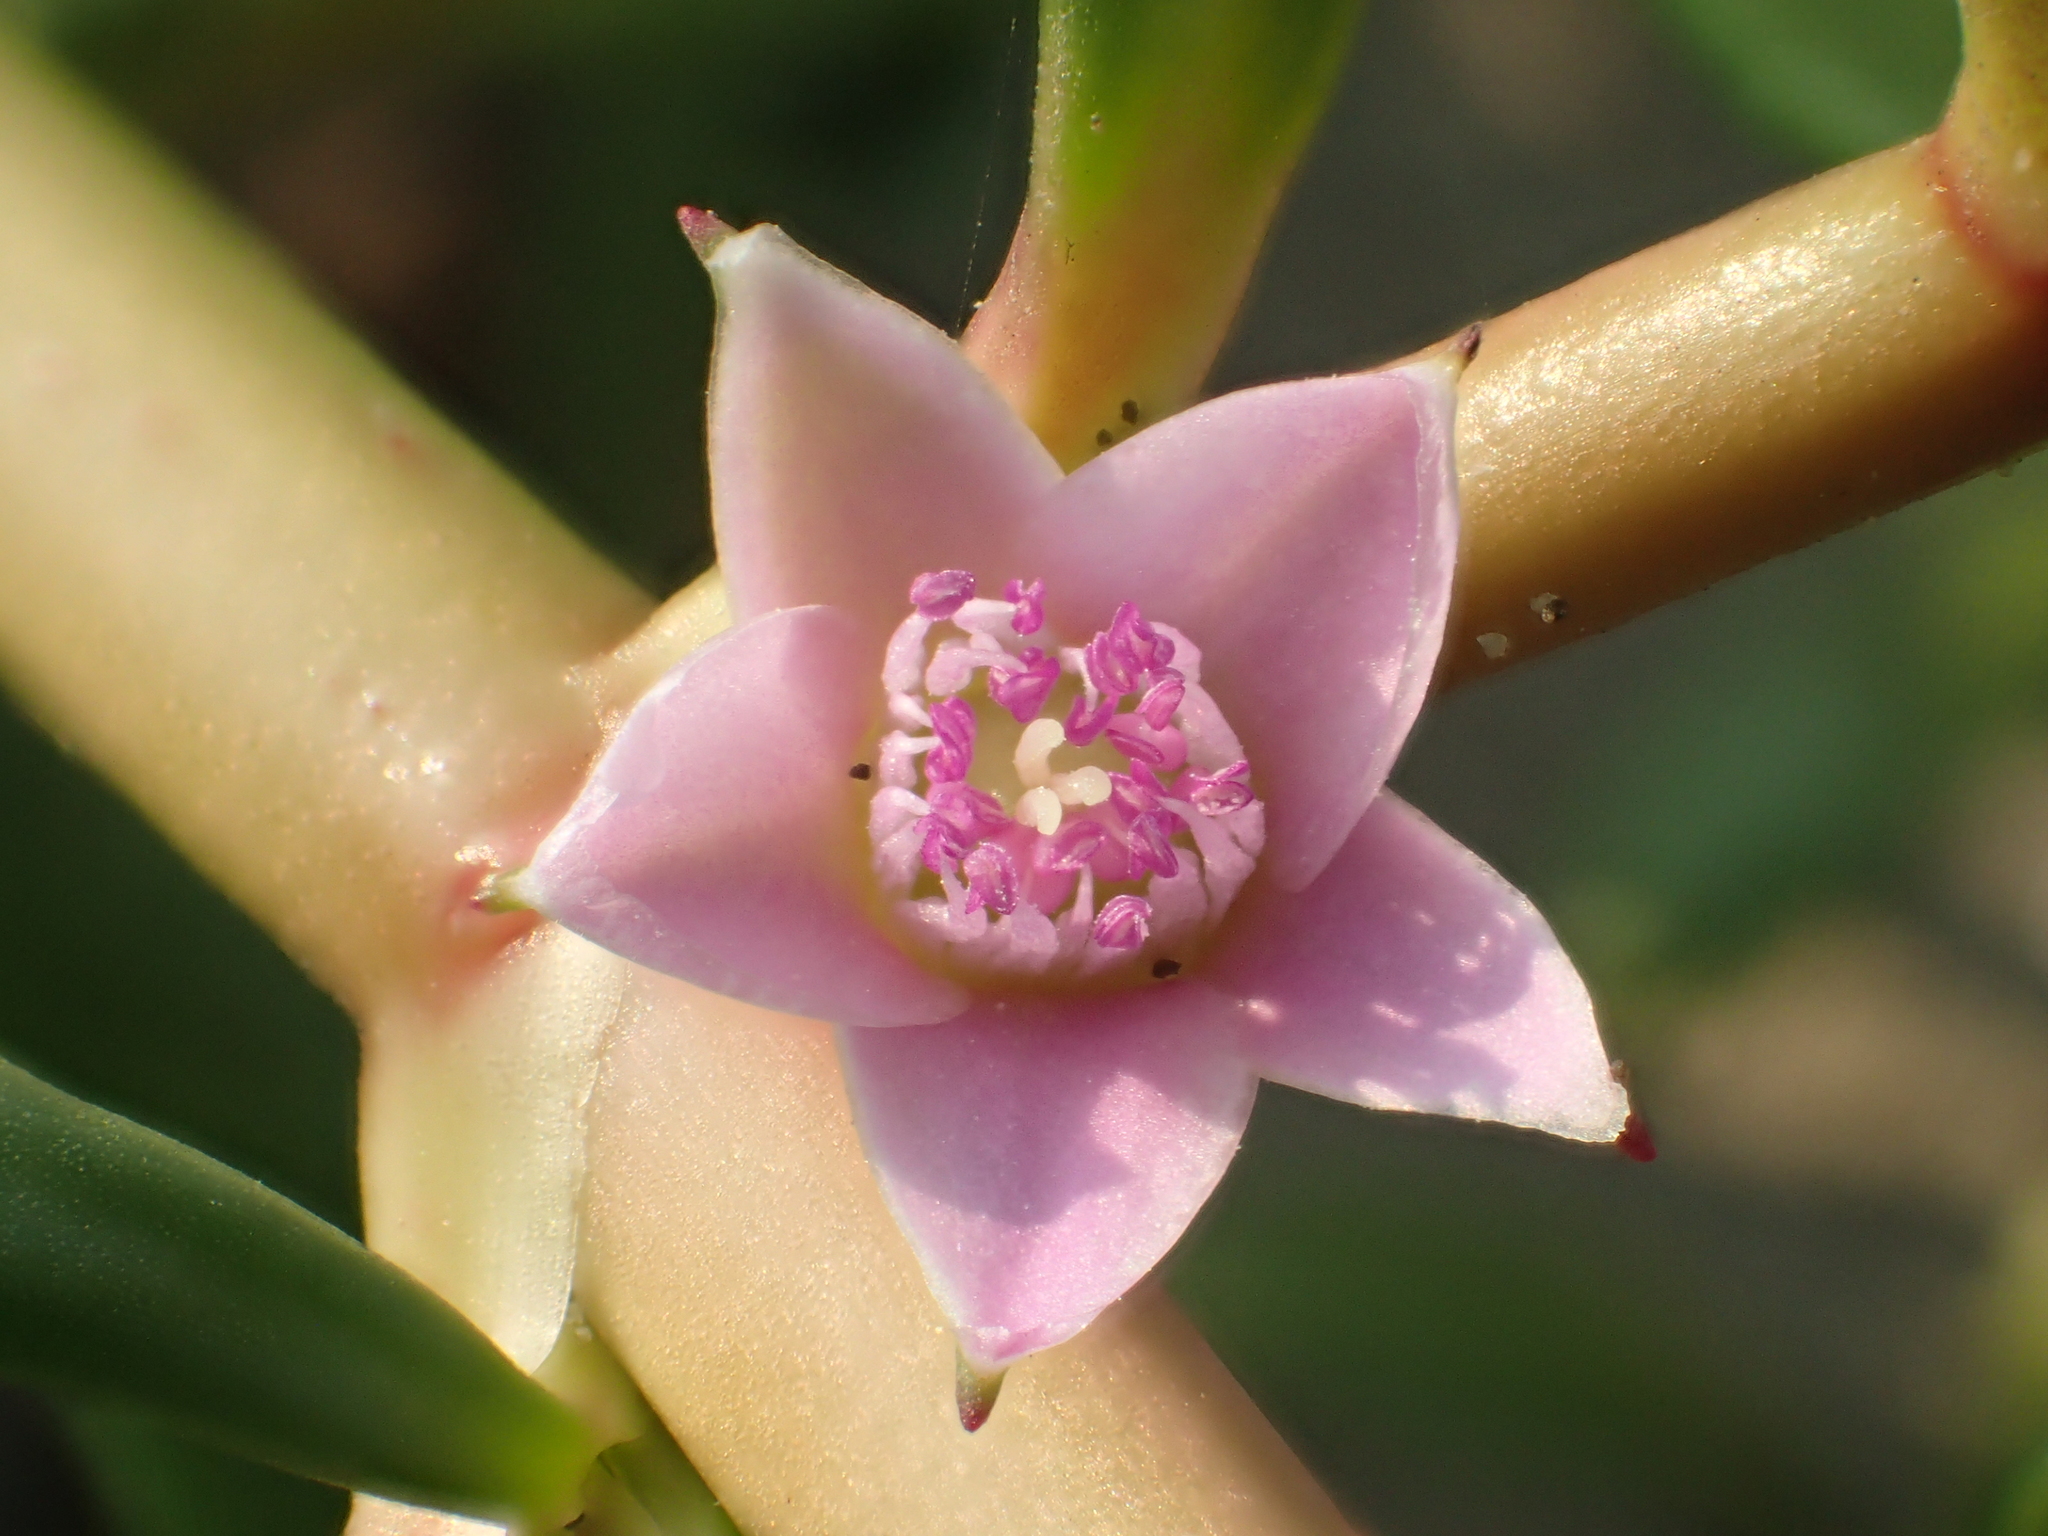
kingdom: Plantae
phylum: Tracheophyta
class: Magnoliopsida
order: Caryophyllales
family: Aizoaceae
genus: Sesuvium
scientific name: Sesuvium portulacastrum
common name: Sea-purslane
